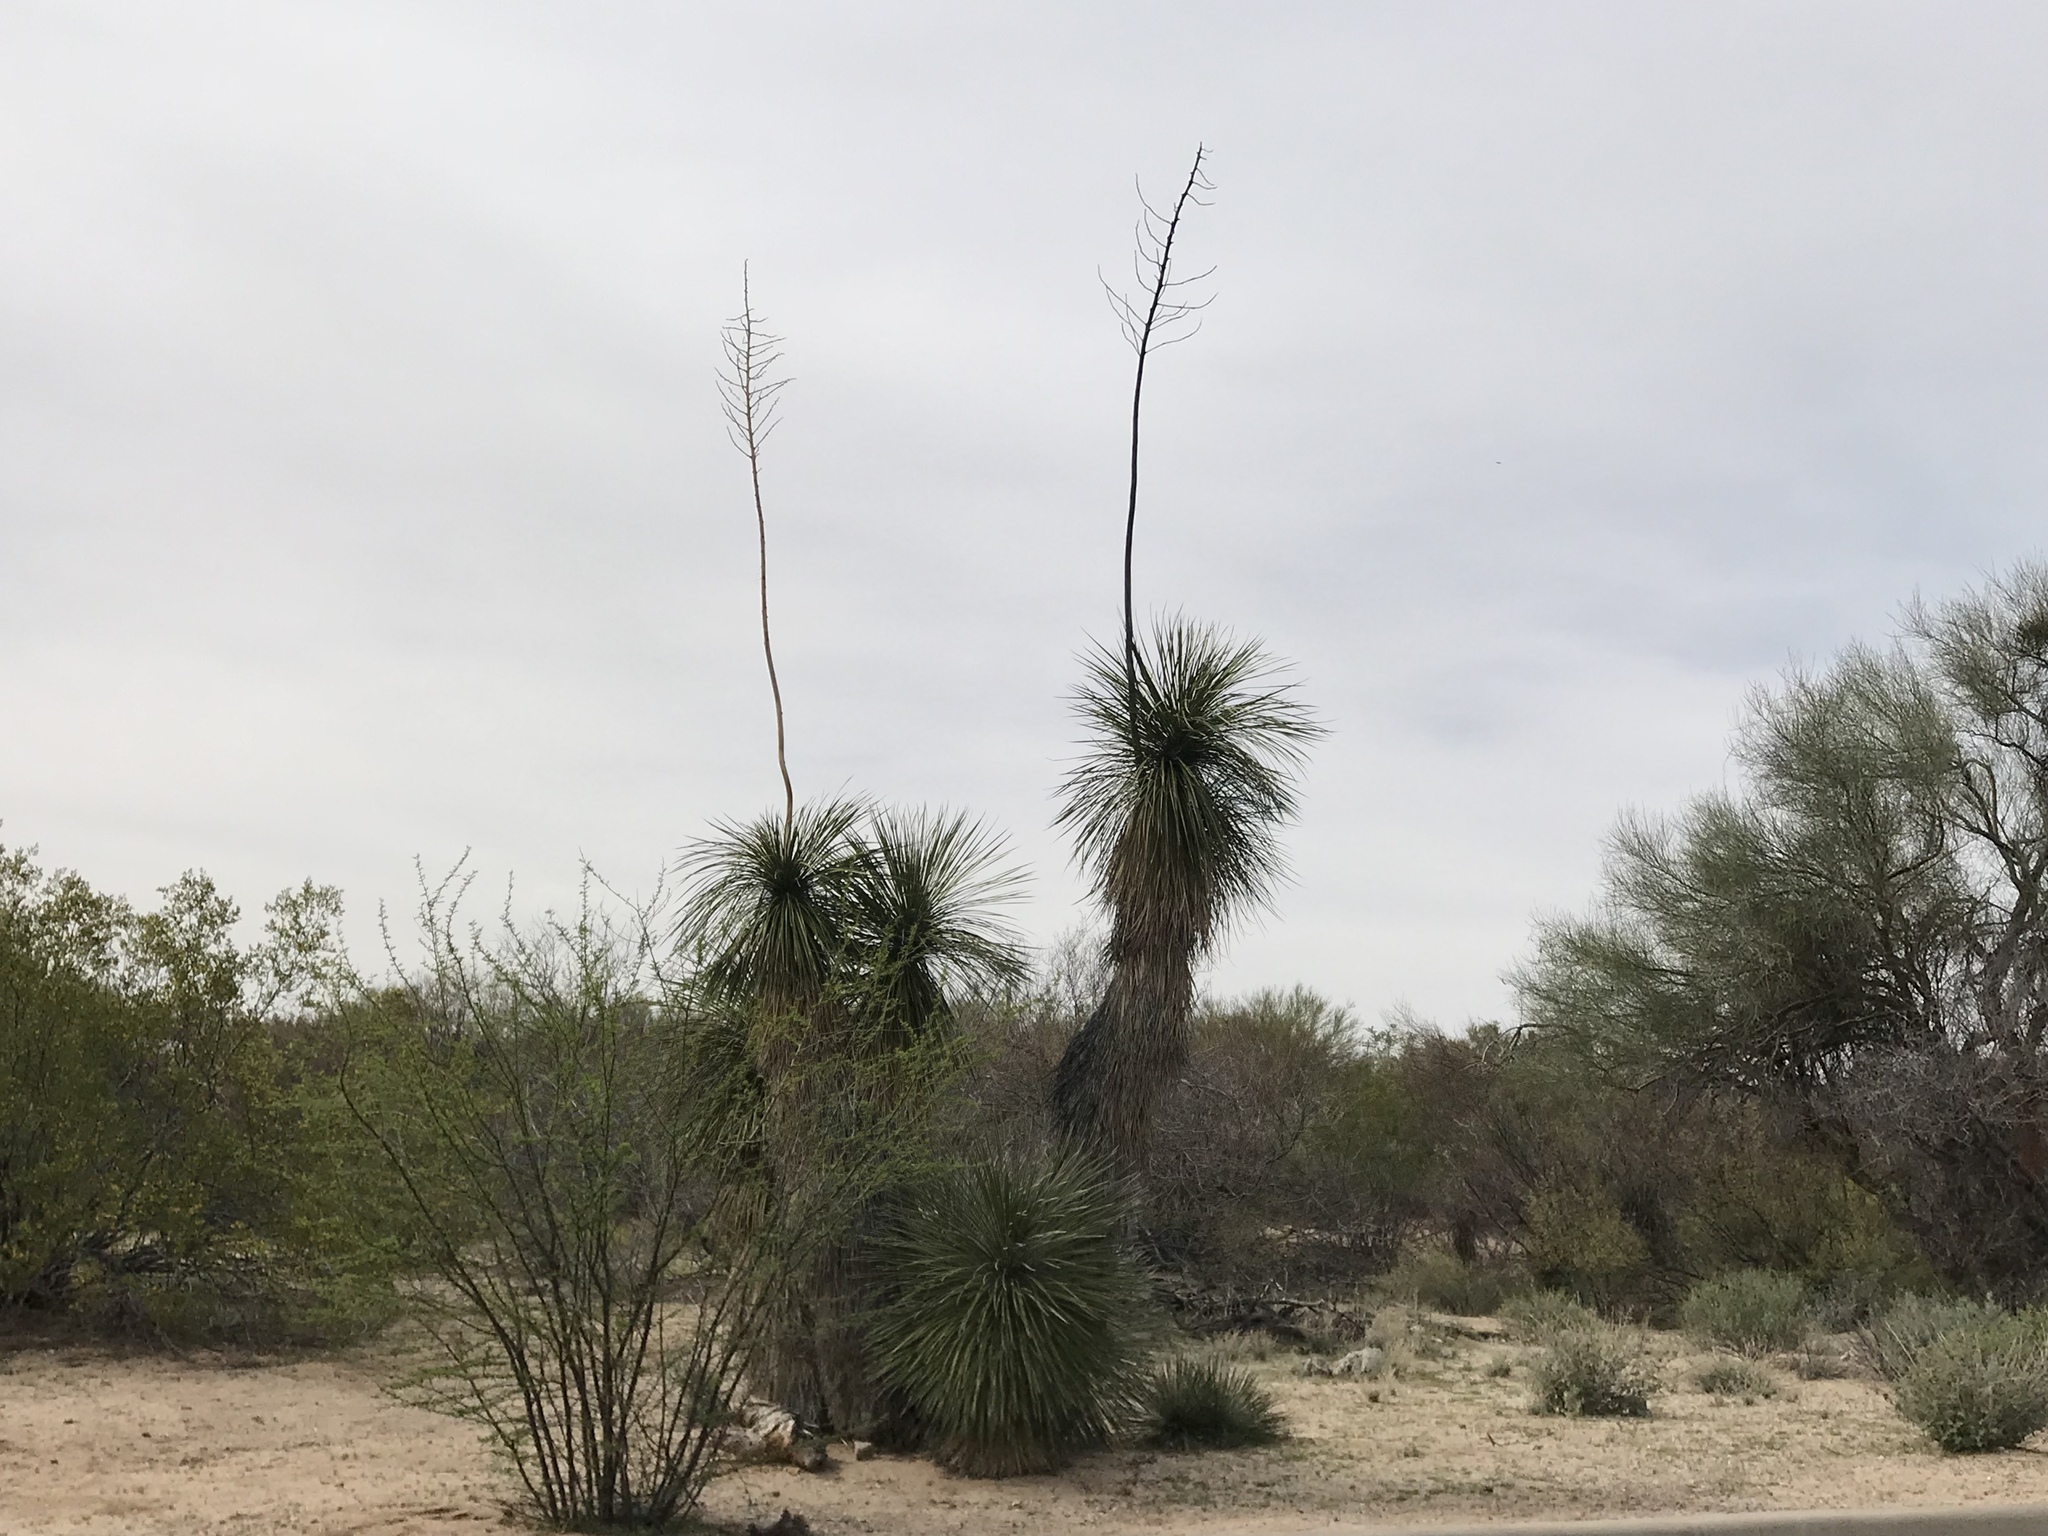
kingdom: Plantae
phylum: Tracheophyta
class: Liliopsida
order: Asparagales
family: Asparagaceae
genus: Yucca
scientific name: Yucca elata
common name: Palmella
